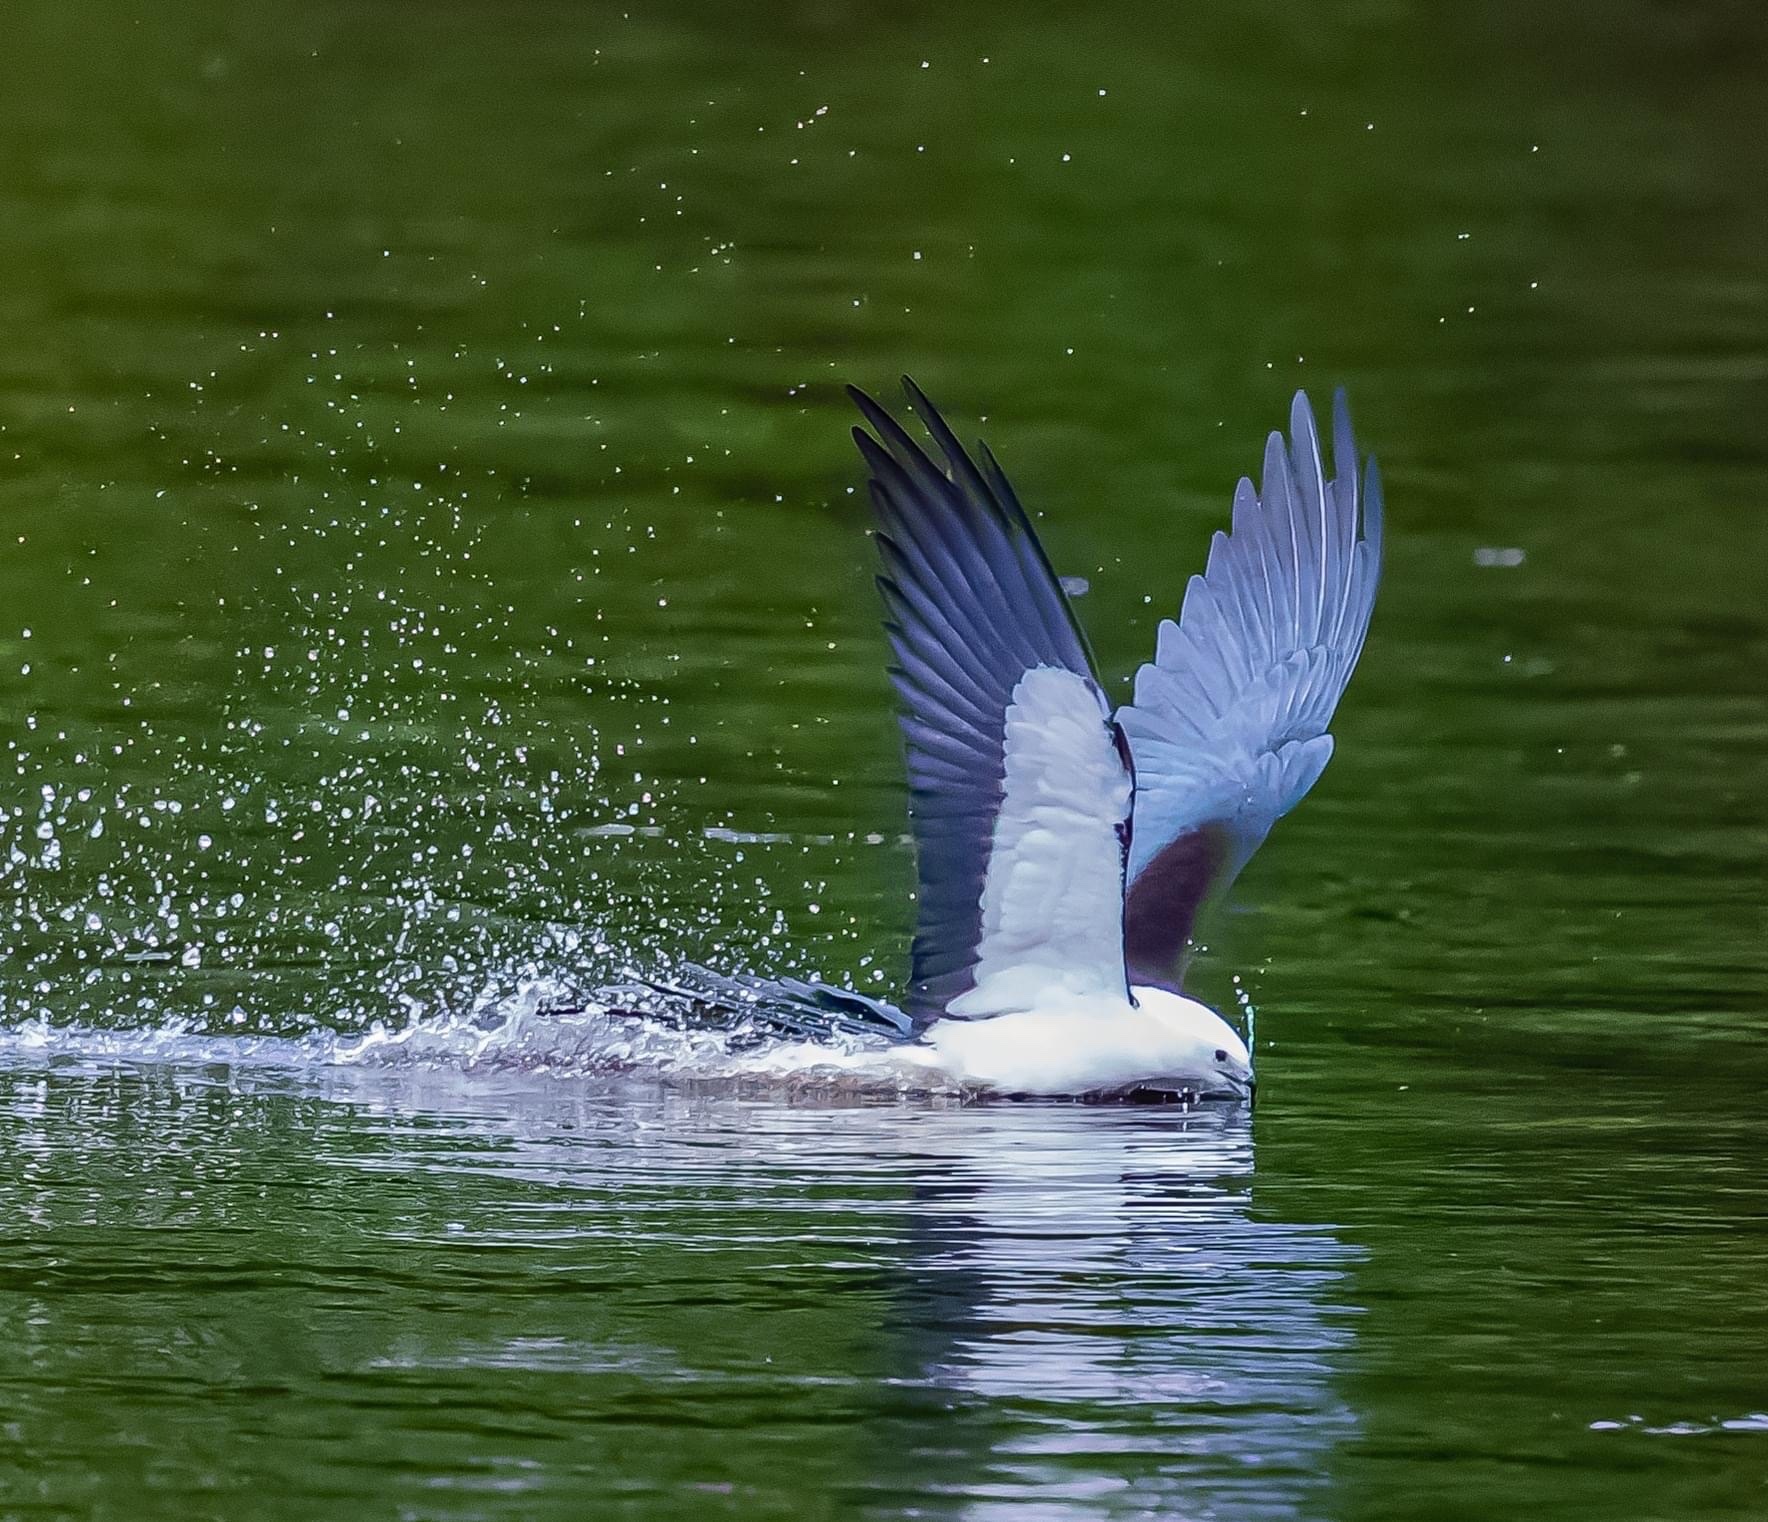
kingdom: Animalia
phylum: Chordata
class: Aves
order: Accipitriformes
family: Accipitridae
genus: Elanoides
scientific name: Elanoides forficatus
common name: Swallow-tailed kite
